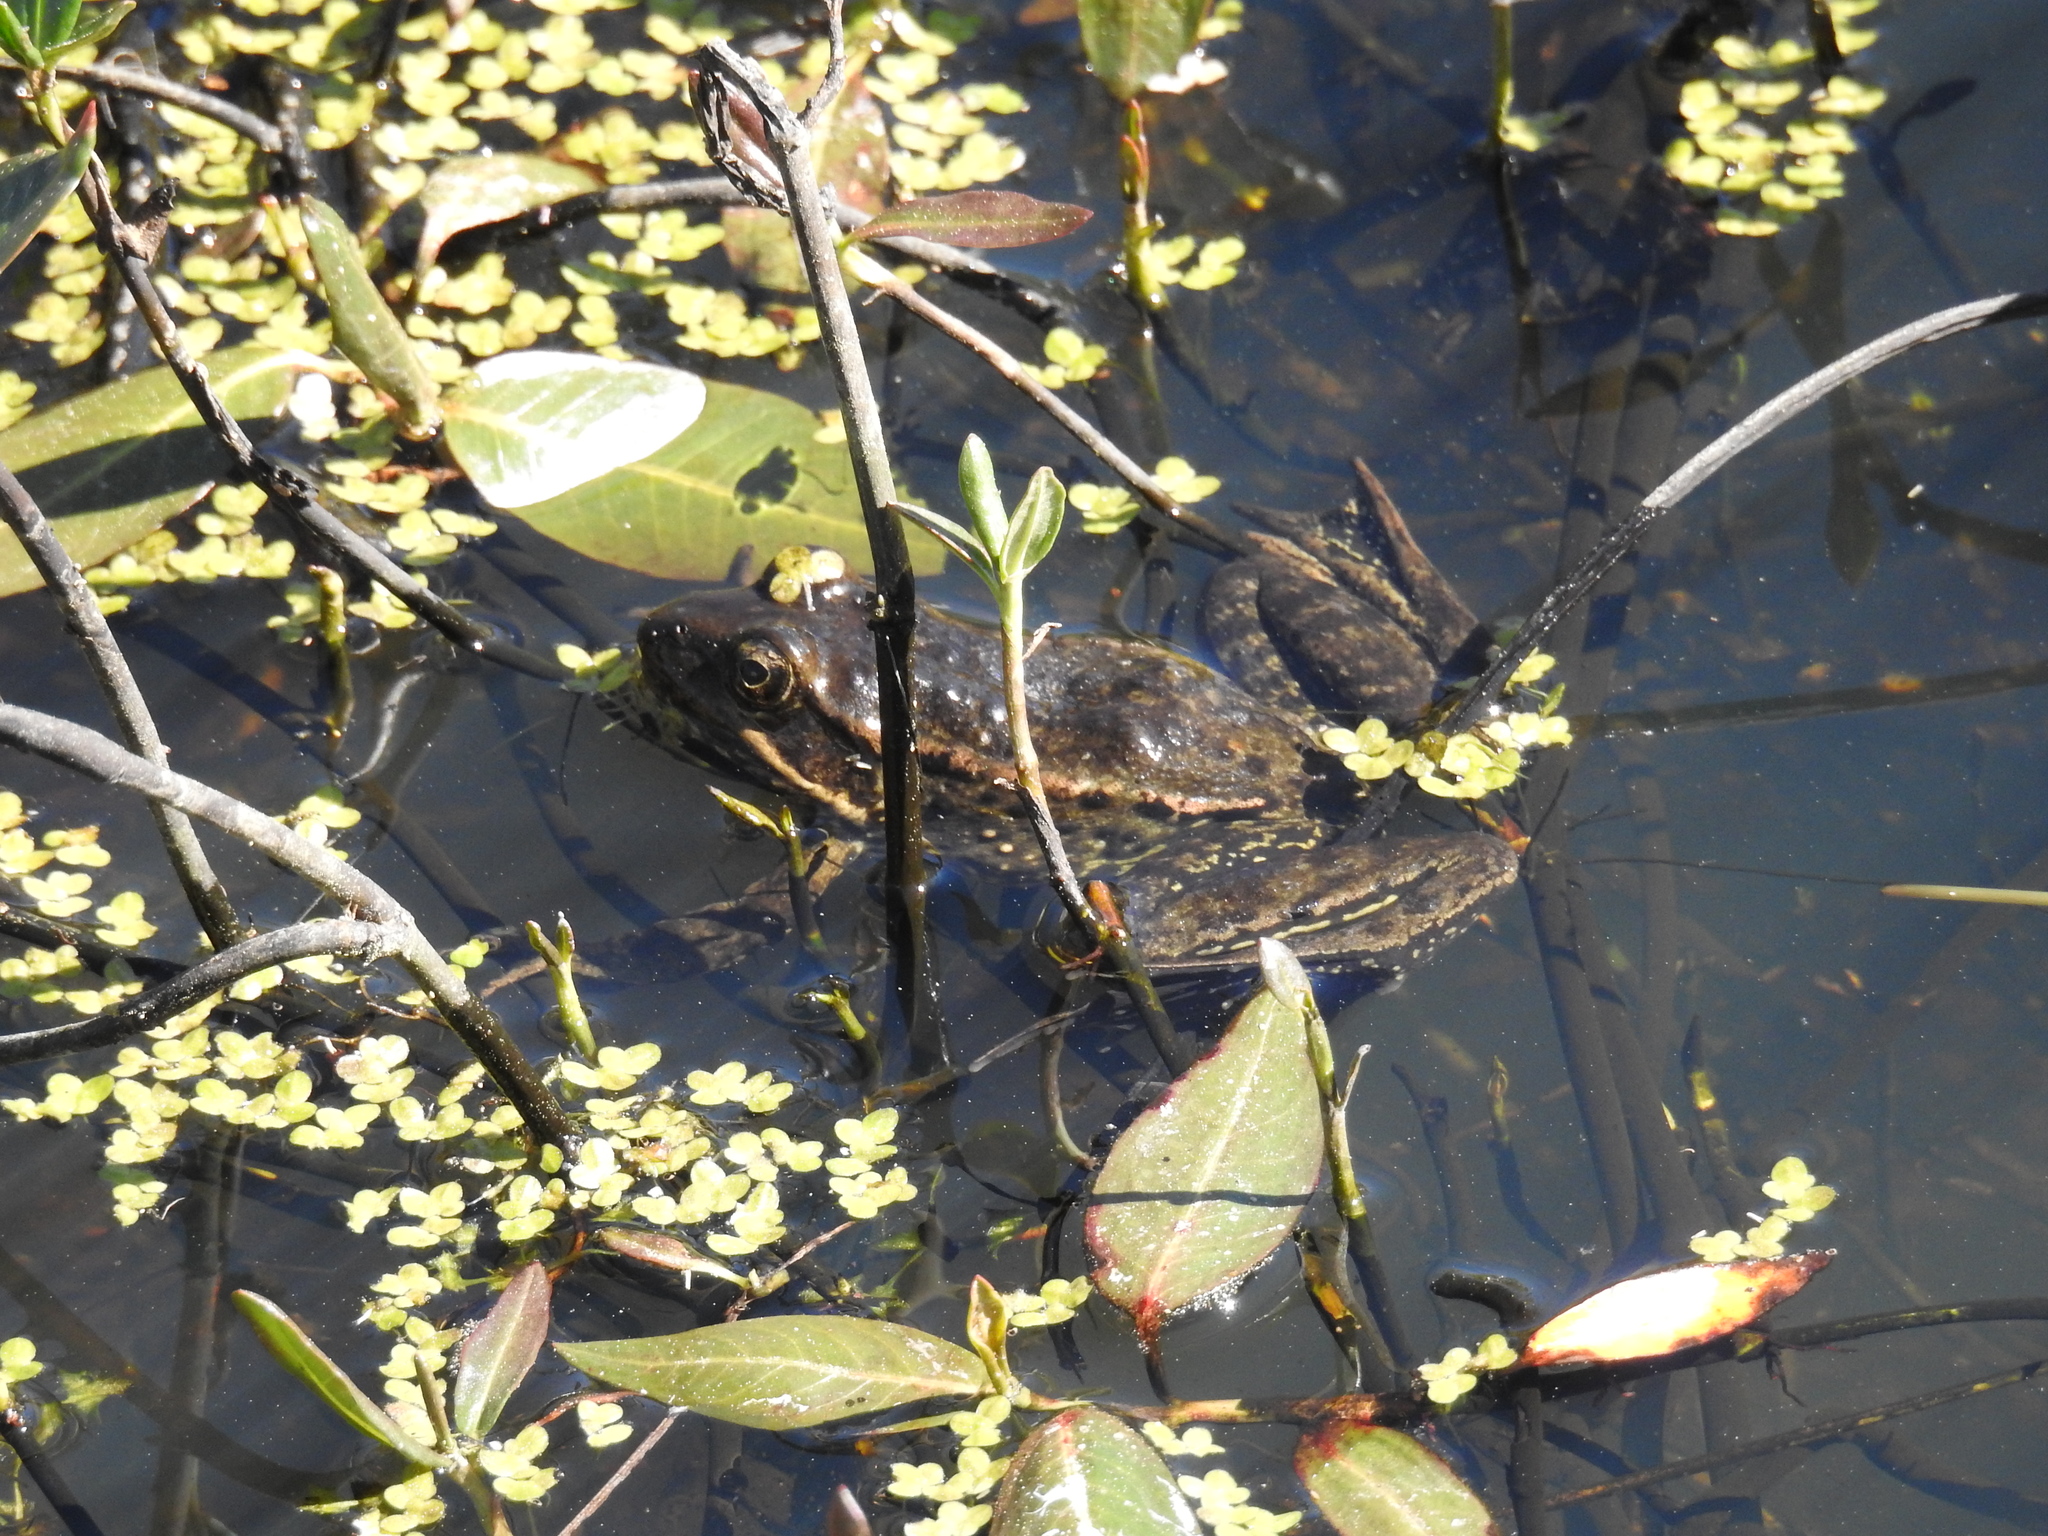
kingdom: Animalia
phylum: Chordata
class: Amphibia
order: Anura
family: Ranidae
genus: Rana
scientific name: Rana draytonii
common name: California red-legged frog
